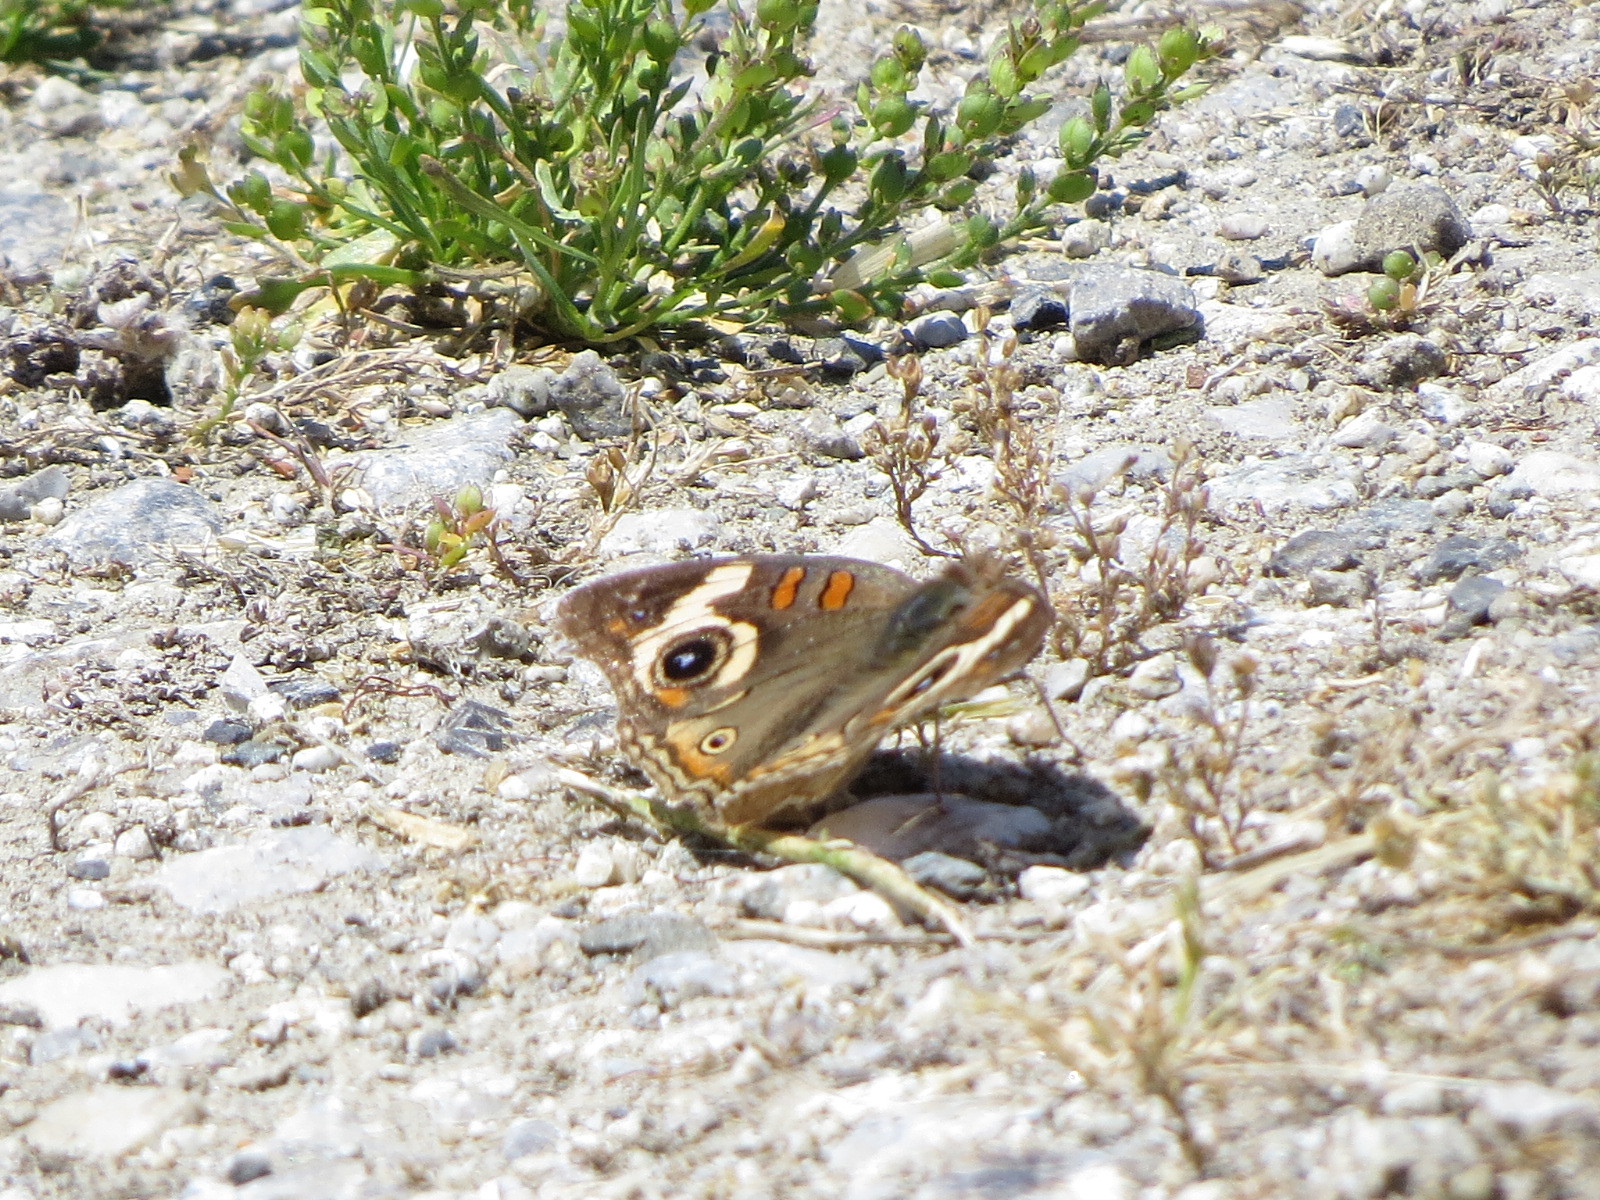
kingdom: Animalia
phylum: Arthropoda
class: Insecta
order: Lepidoptera
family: Nymphalidae
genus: Junonia
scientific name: Junonia grisea
